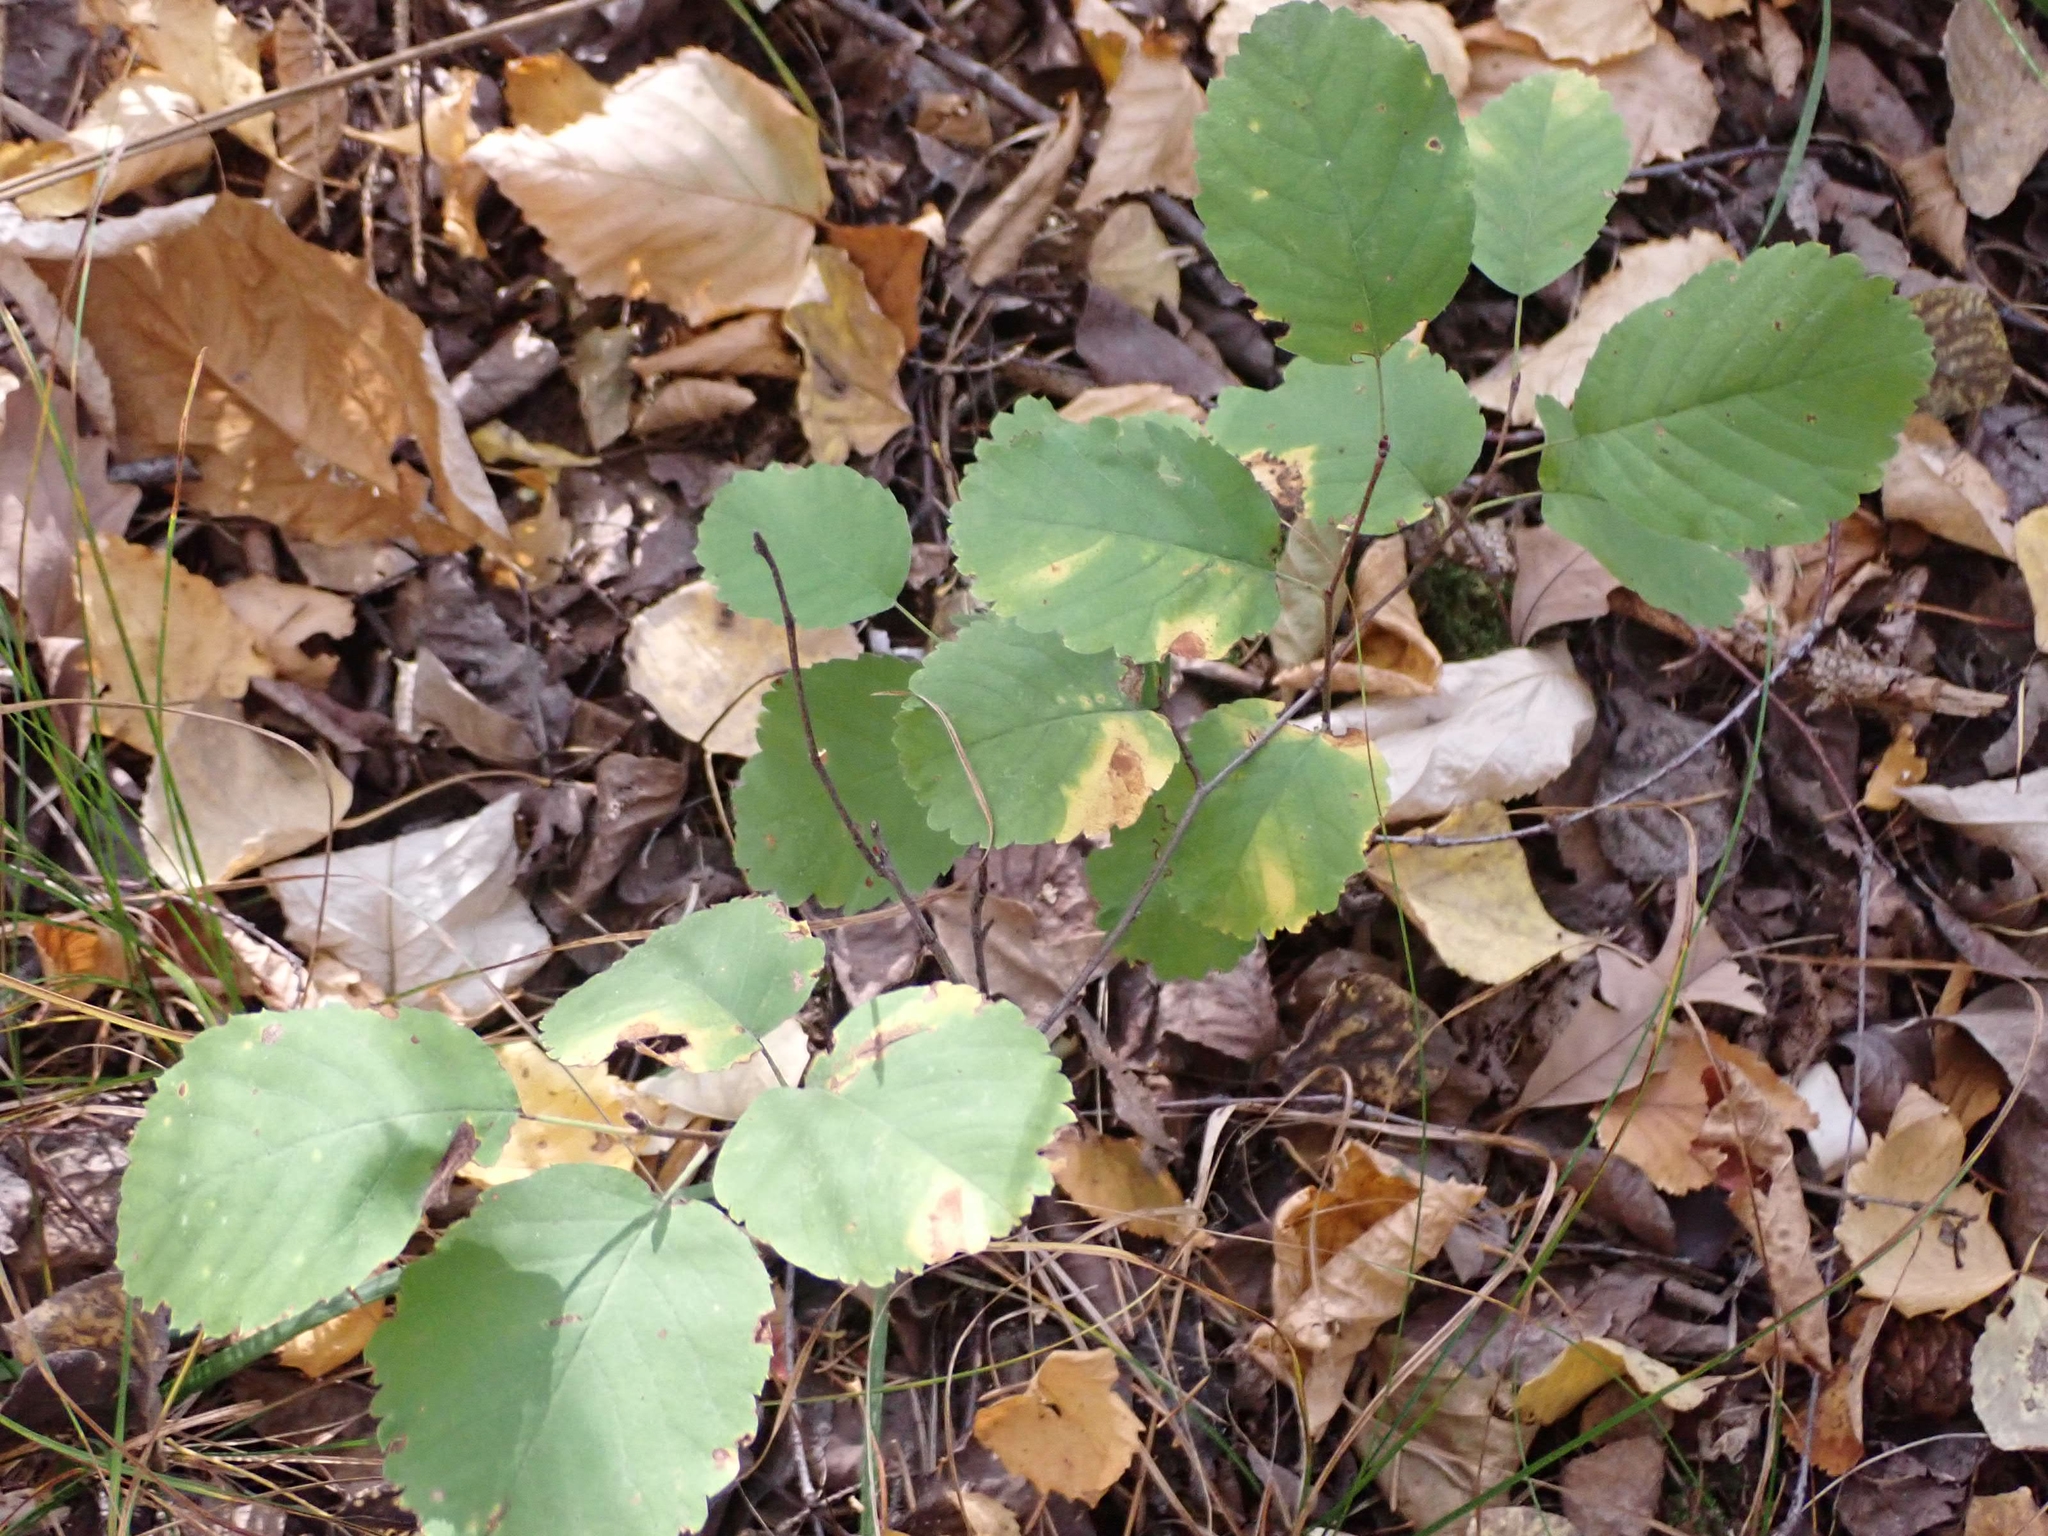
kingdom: Plantae
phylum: Tracheophyta
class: Magnoliopsida
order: Rosales
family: Rosaceae
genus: Amelanchier
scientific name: Amelanchier alnifolia
